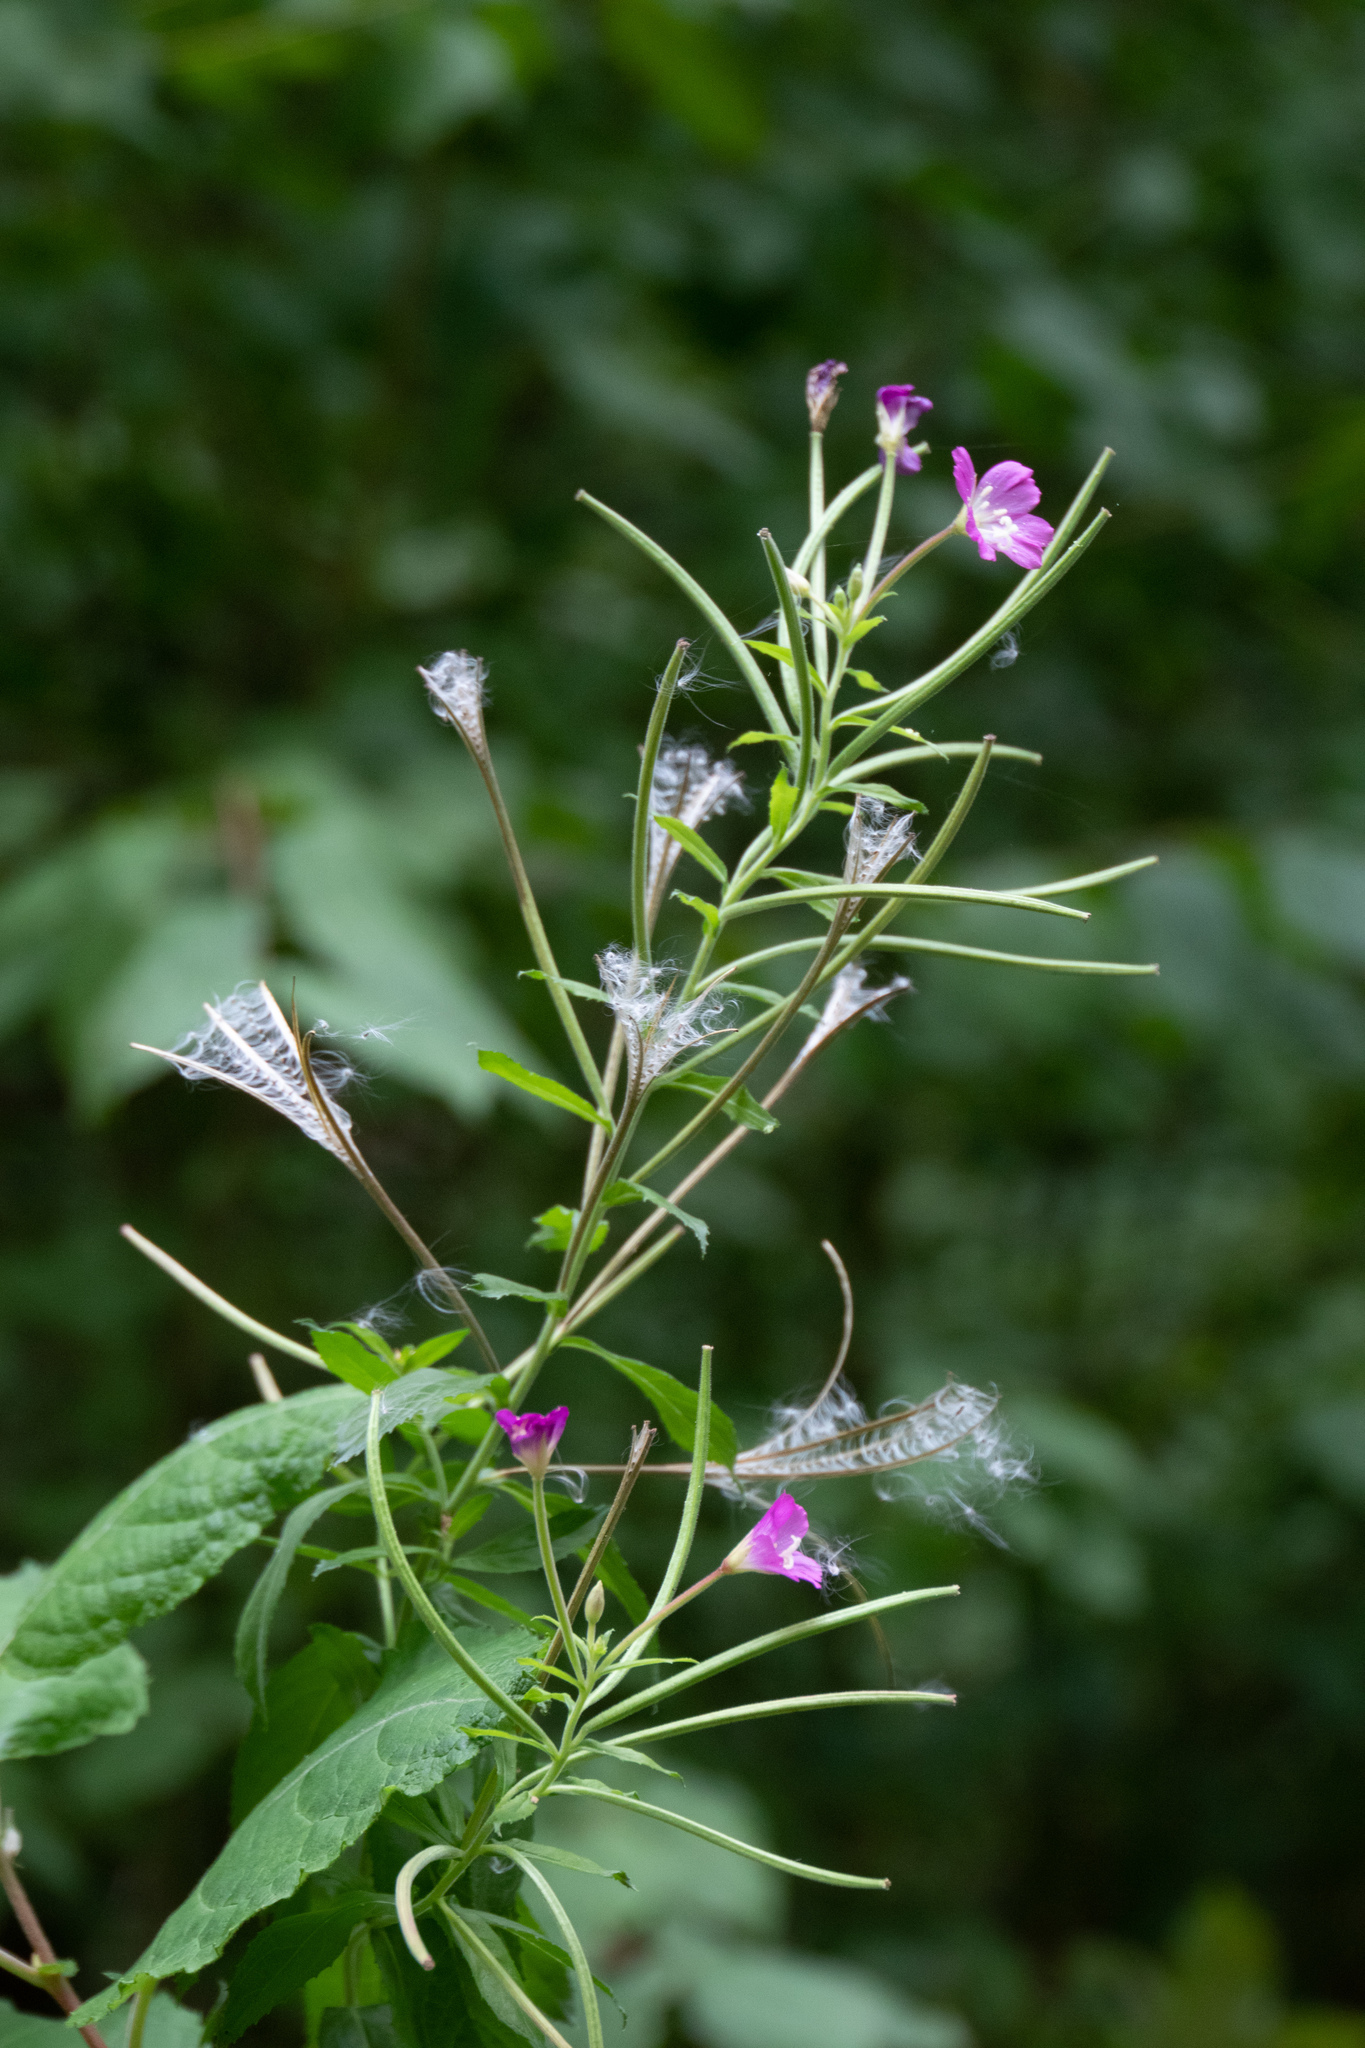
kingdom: Plantae
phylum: Tracheophyta
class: Magnoliopsida
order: Myrtales
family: Onagraceae
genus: Epilobium
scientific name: Epilobium hirsutum
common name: Great willowherb
